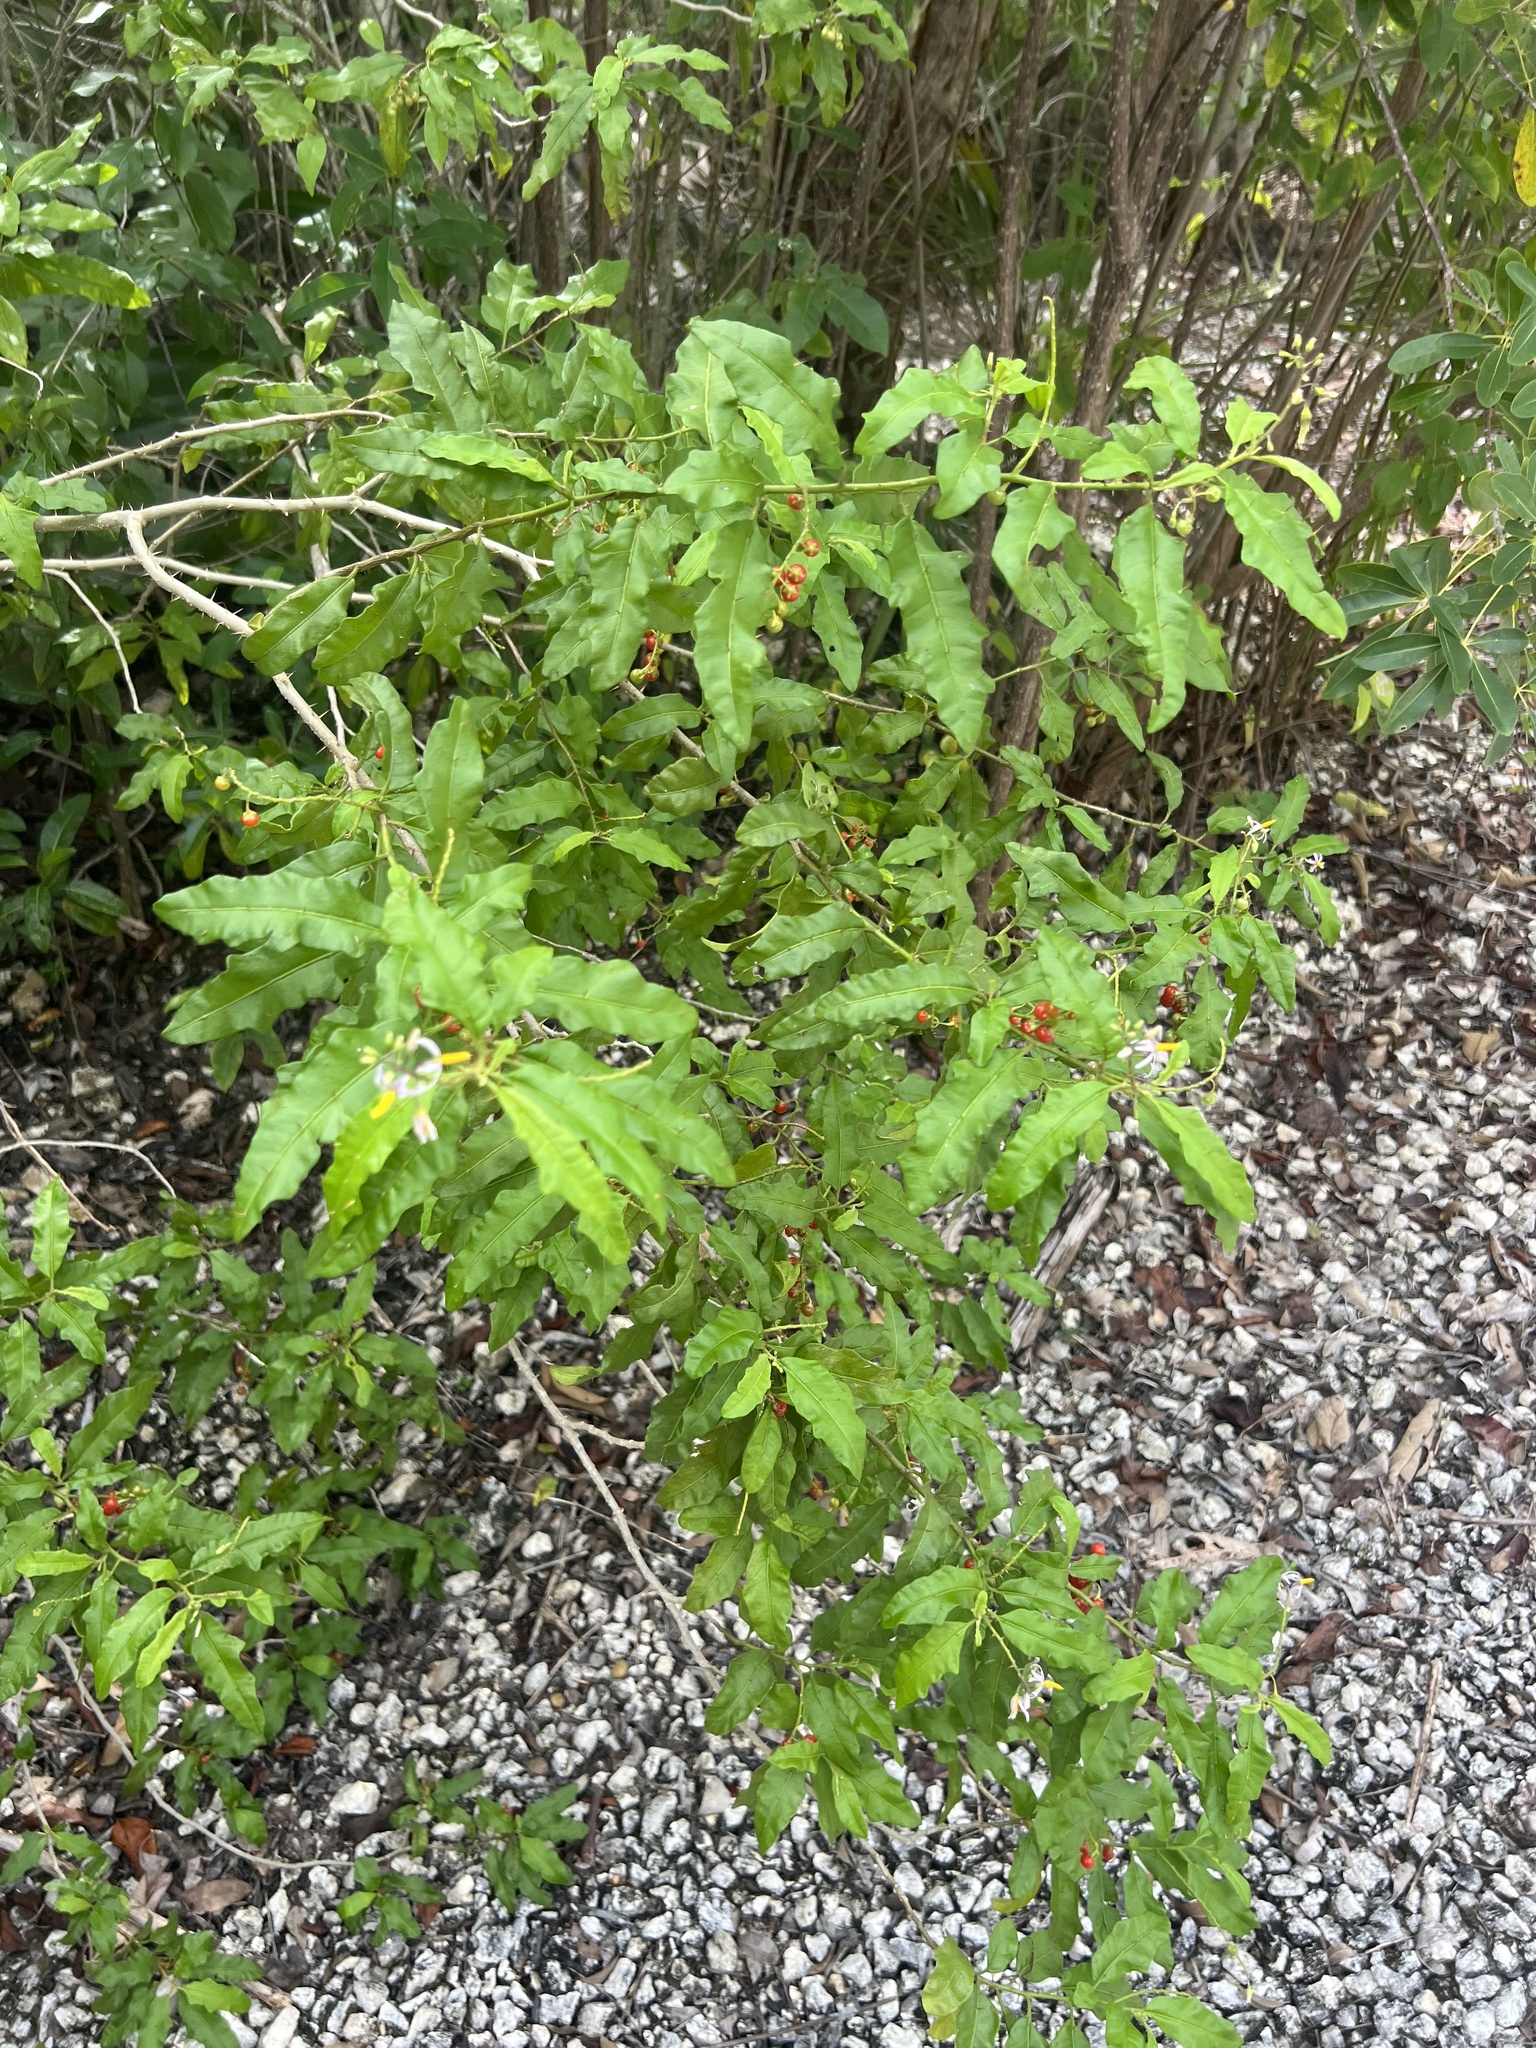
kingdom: Plantae
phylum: Tracheophyta
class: Magnoliopsida
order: Solanales
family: Solanaceae
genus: Solanum
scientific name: Solanum bahamense
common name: Canker-berry
